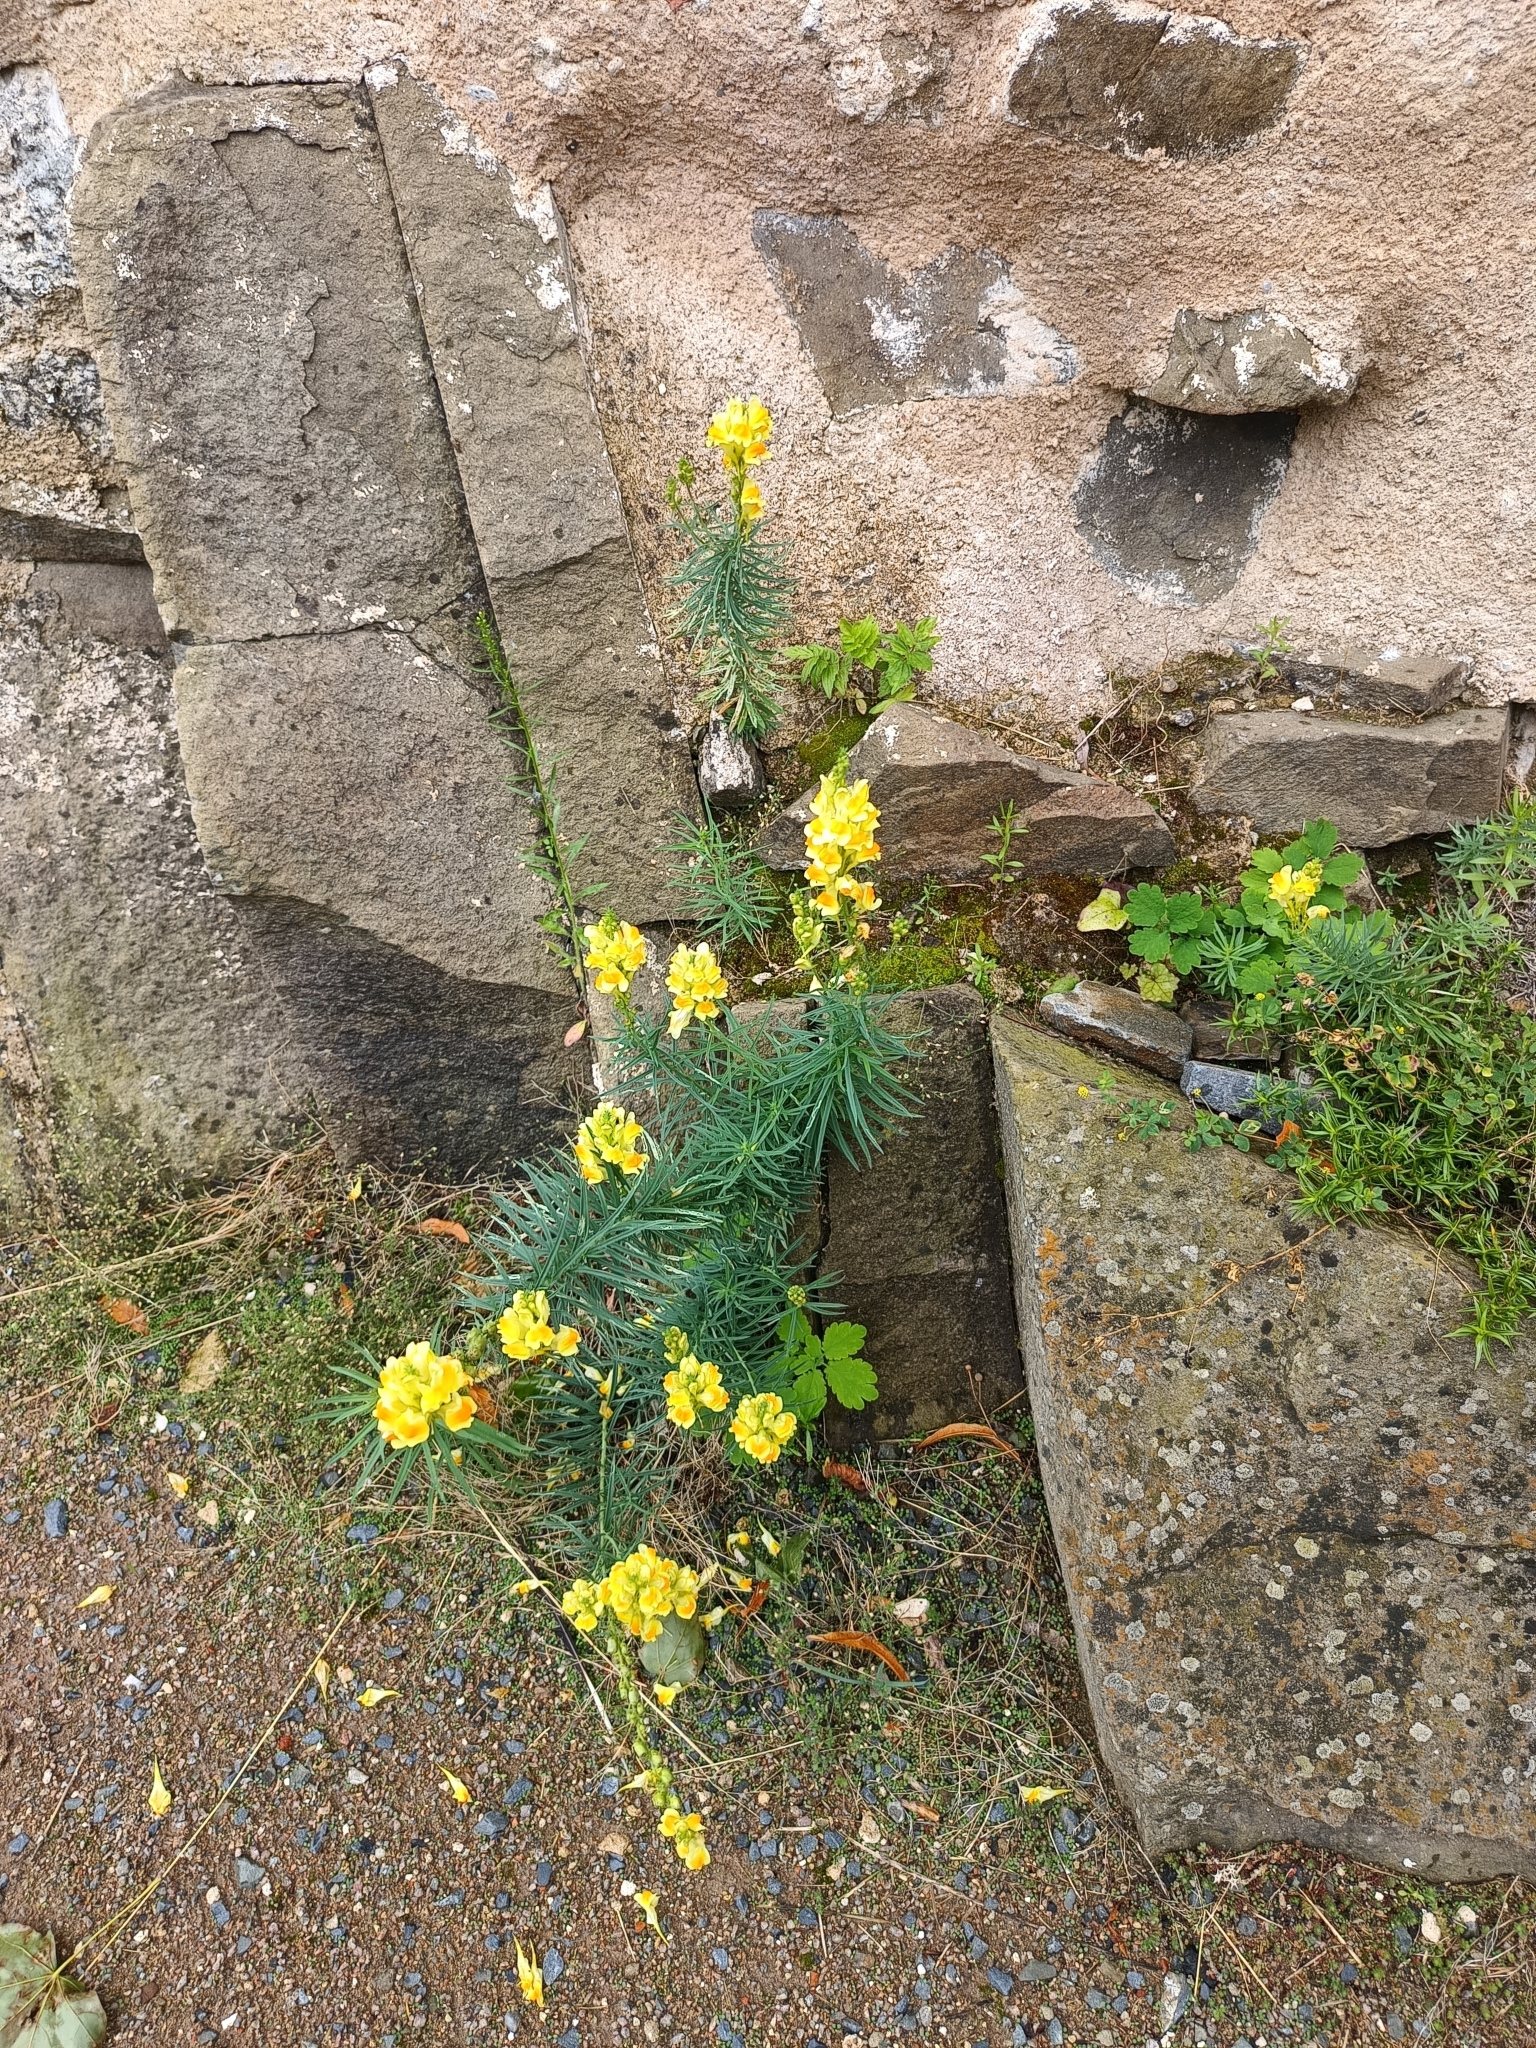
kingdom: Plantae
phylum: Tracheophyta
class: Magnoliopsida
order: Lamiales
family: Plantaginaceae
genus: Linaria
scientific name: Linaria vulgaris
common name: Butter and eggs
